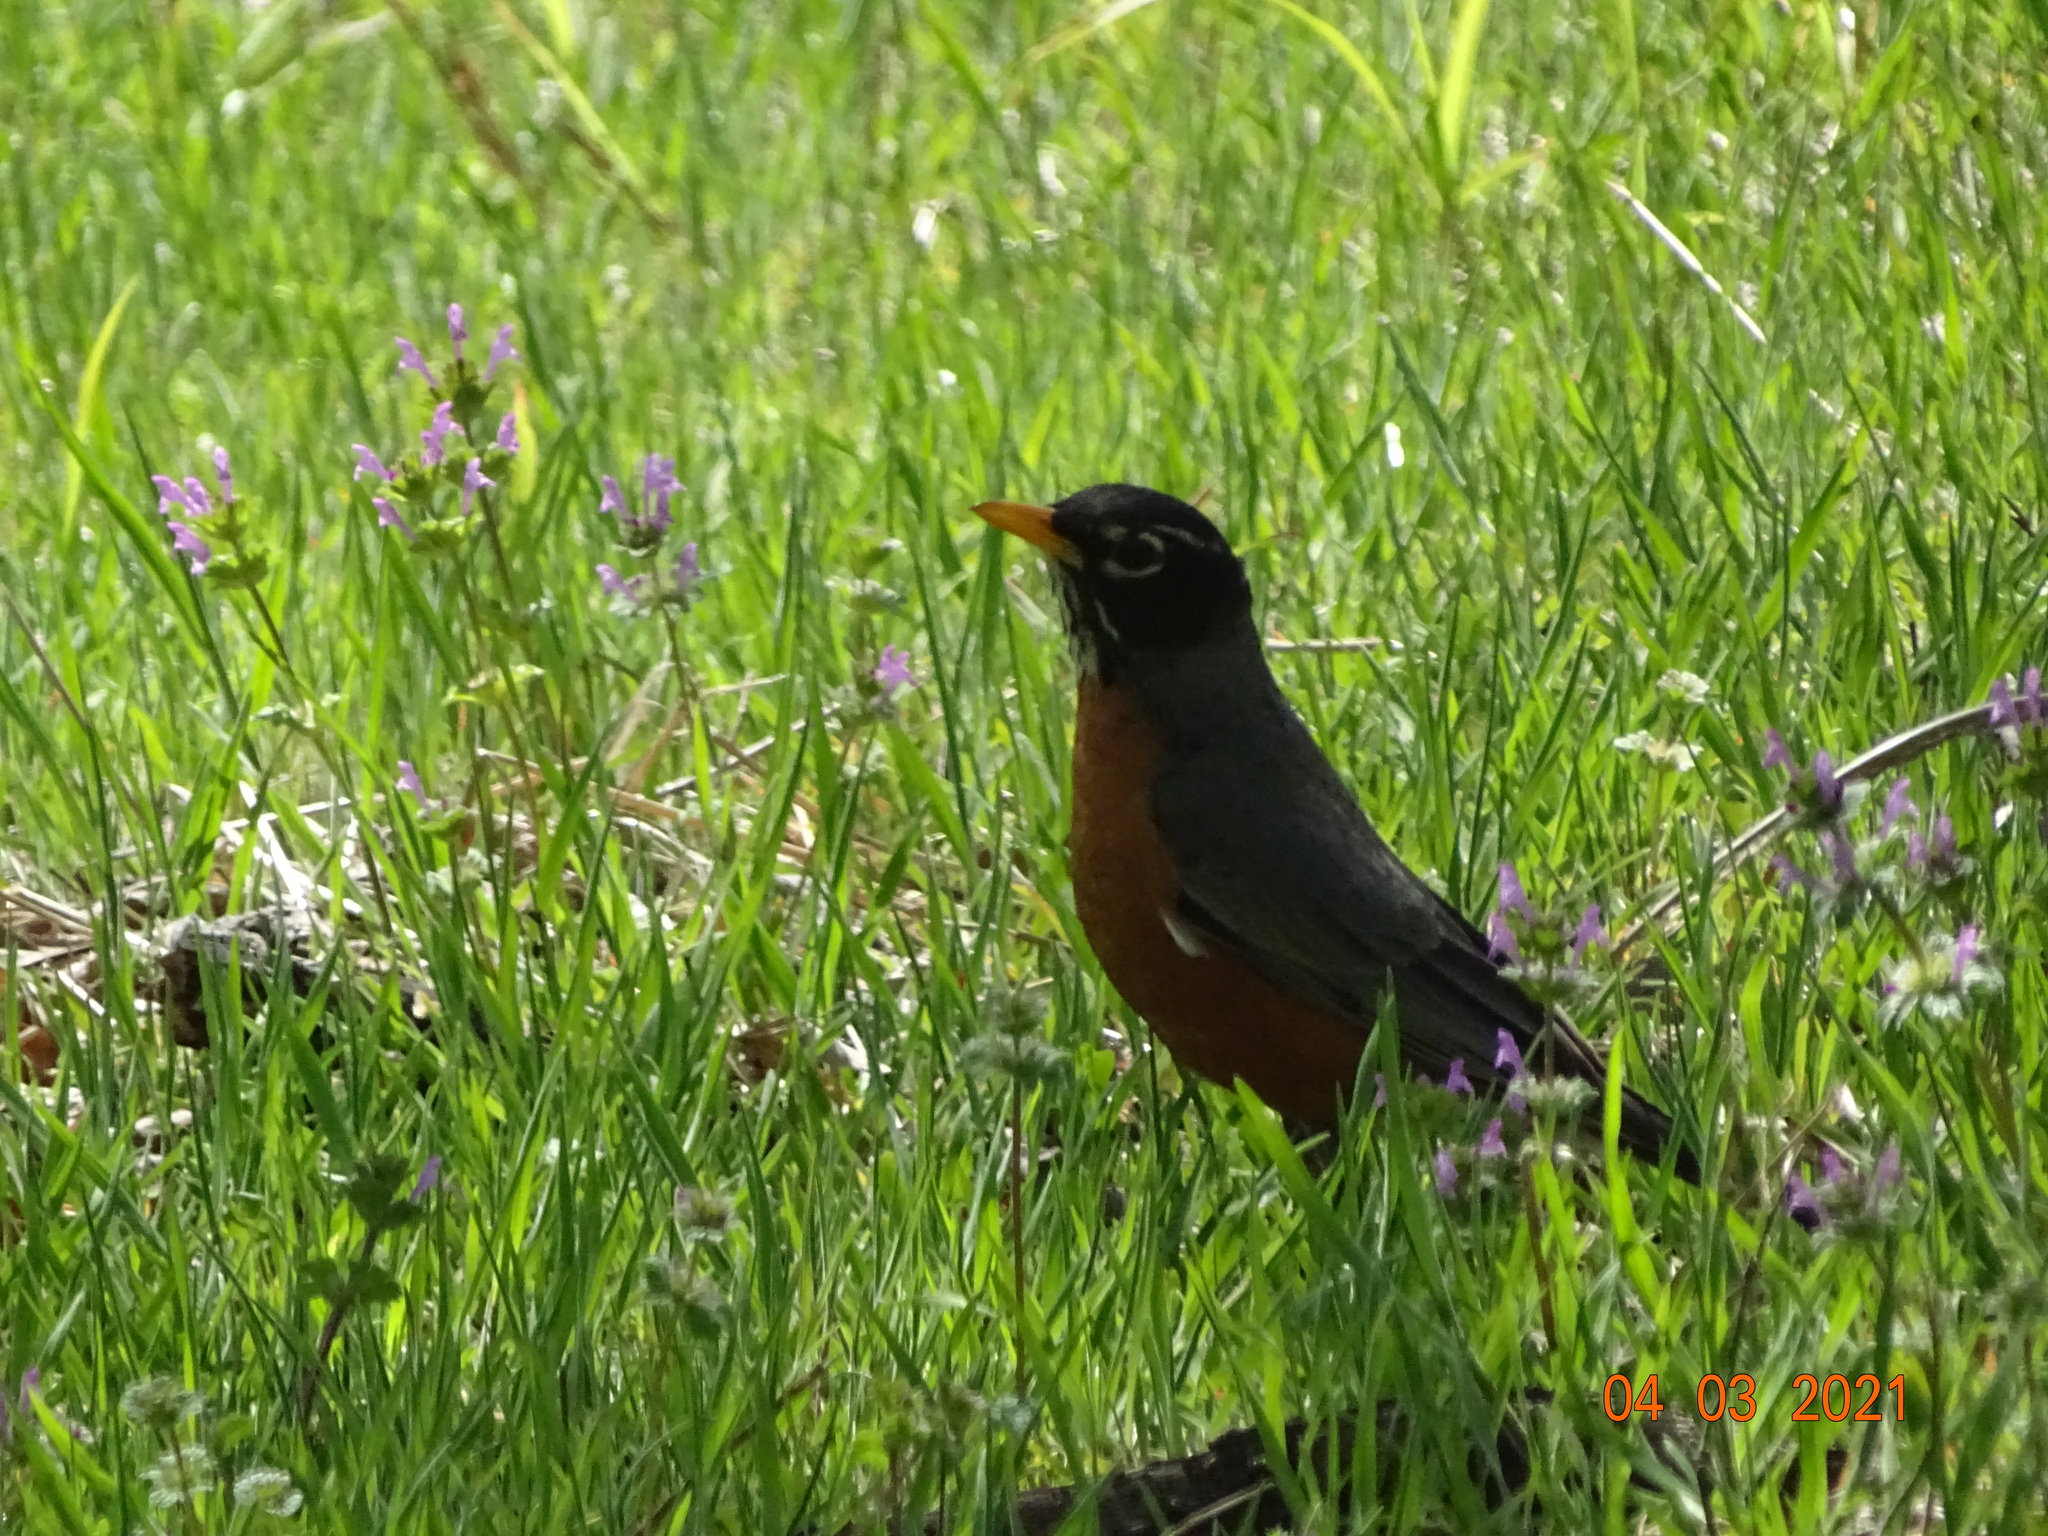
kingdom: Animalia
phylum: Chordata
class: Aves
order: Passeriformes
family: Turdidae
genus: Turdus
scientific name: Turdus migratorius
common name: American robin
